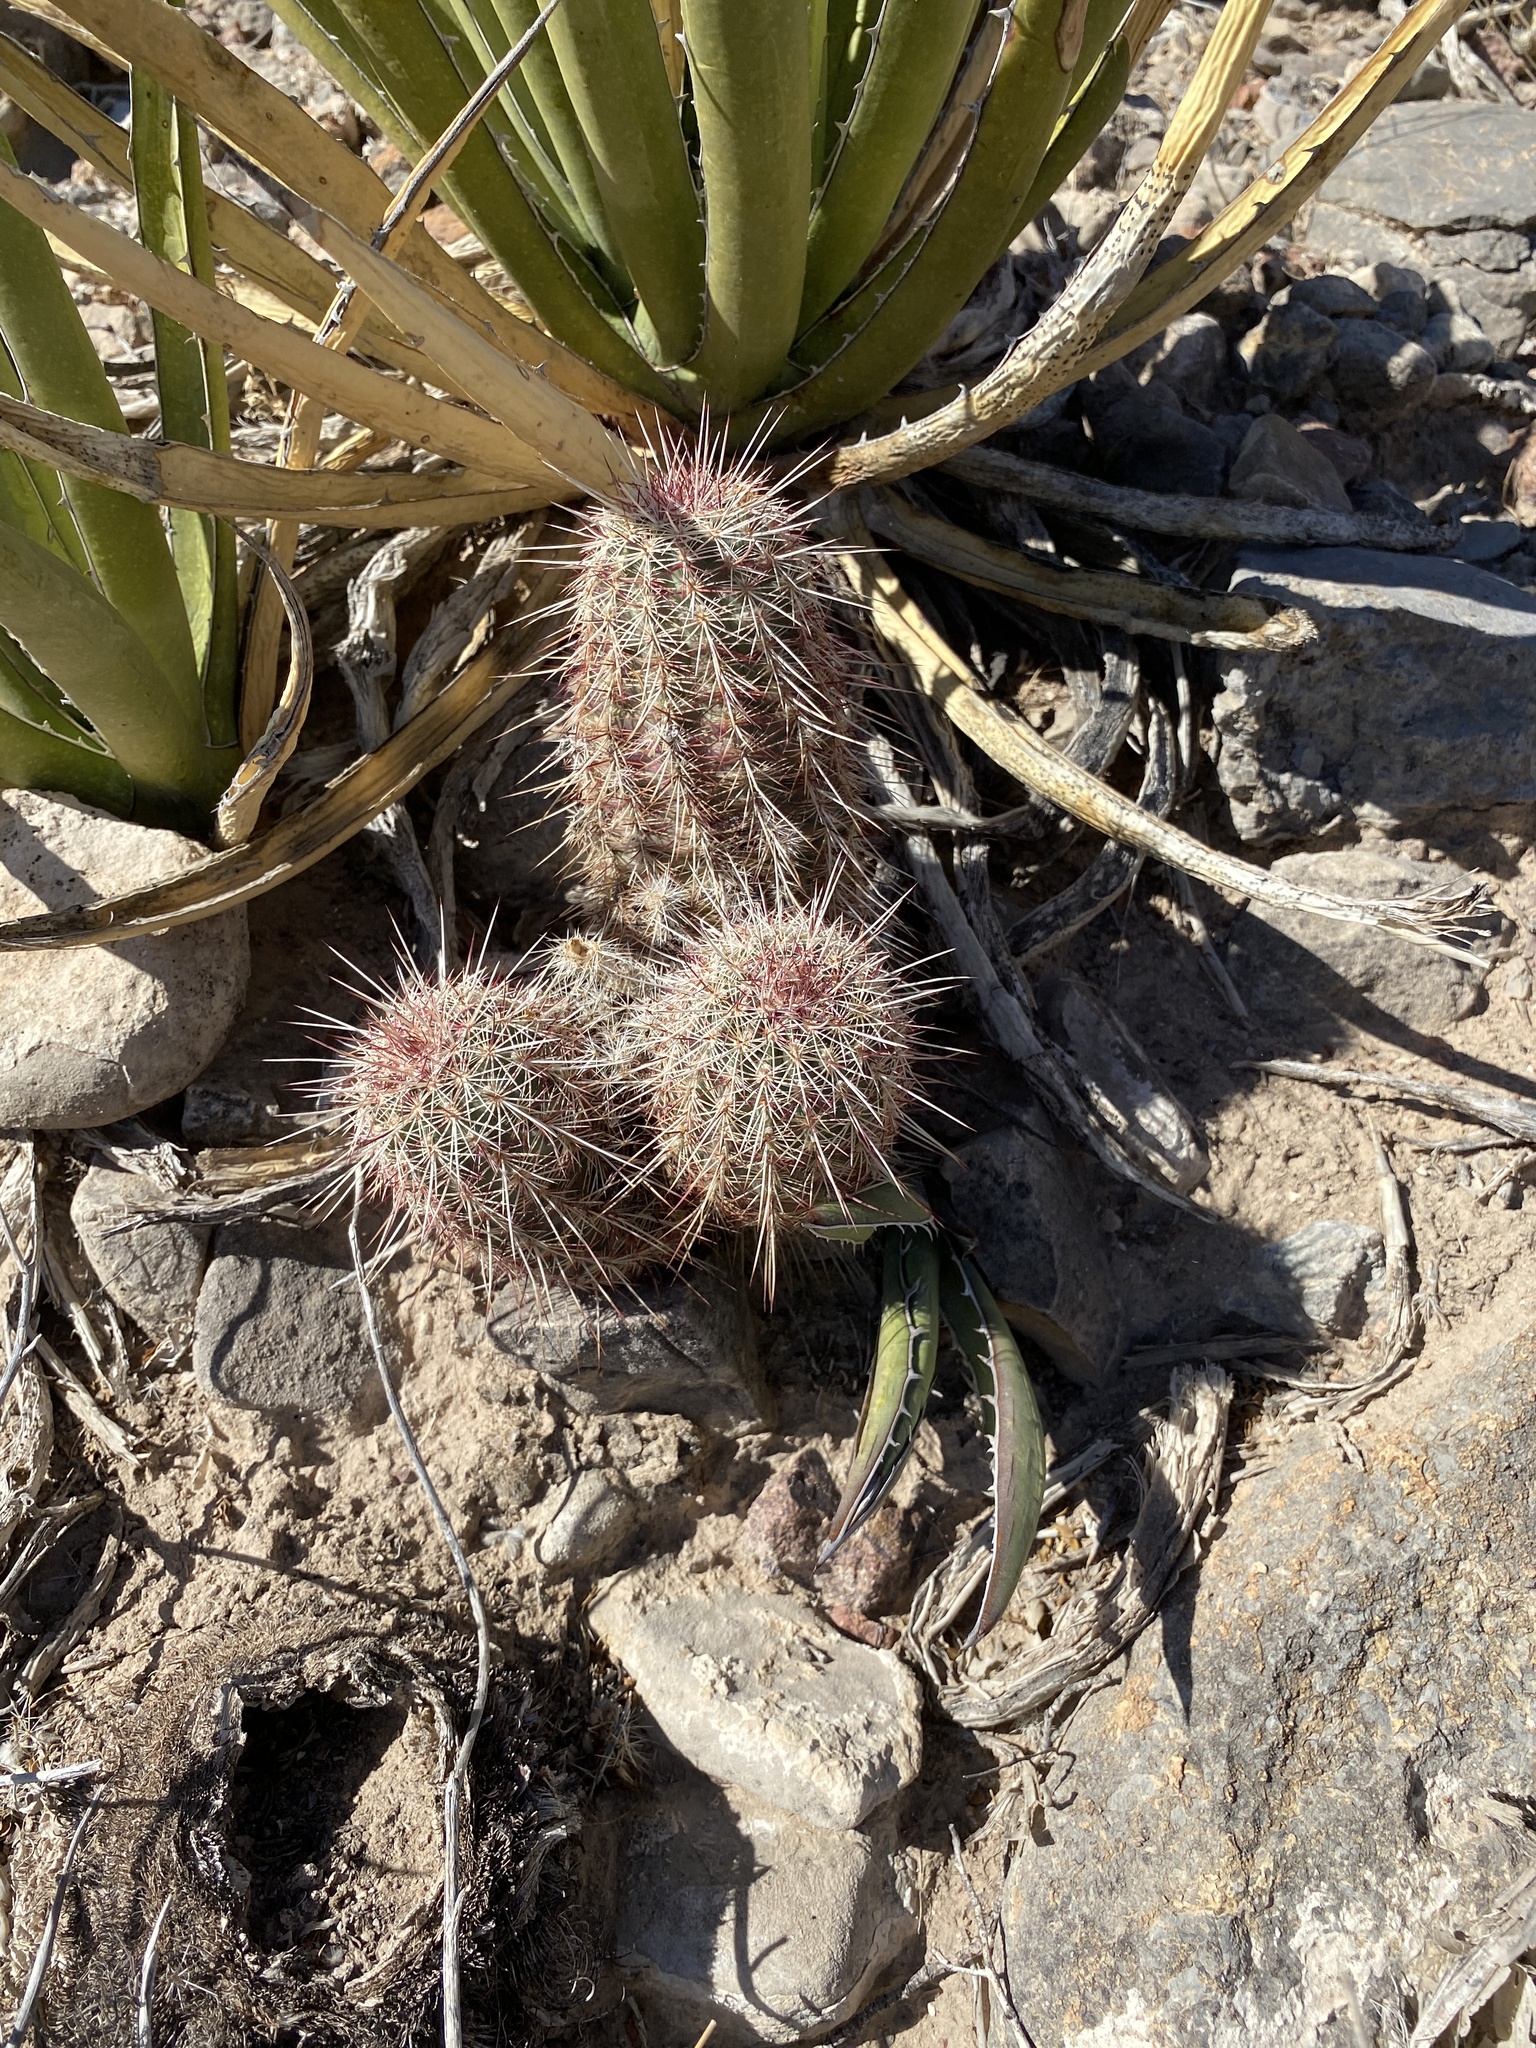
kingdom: Plantae
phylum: Tracheophyta
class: Magnoliopsida
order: Caryophyllales
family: Cactaceae
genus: Echinocereus
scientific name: Echinocereus viridiflorus
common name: Nylon hedgehog cactus
